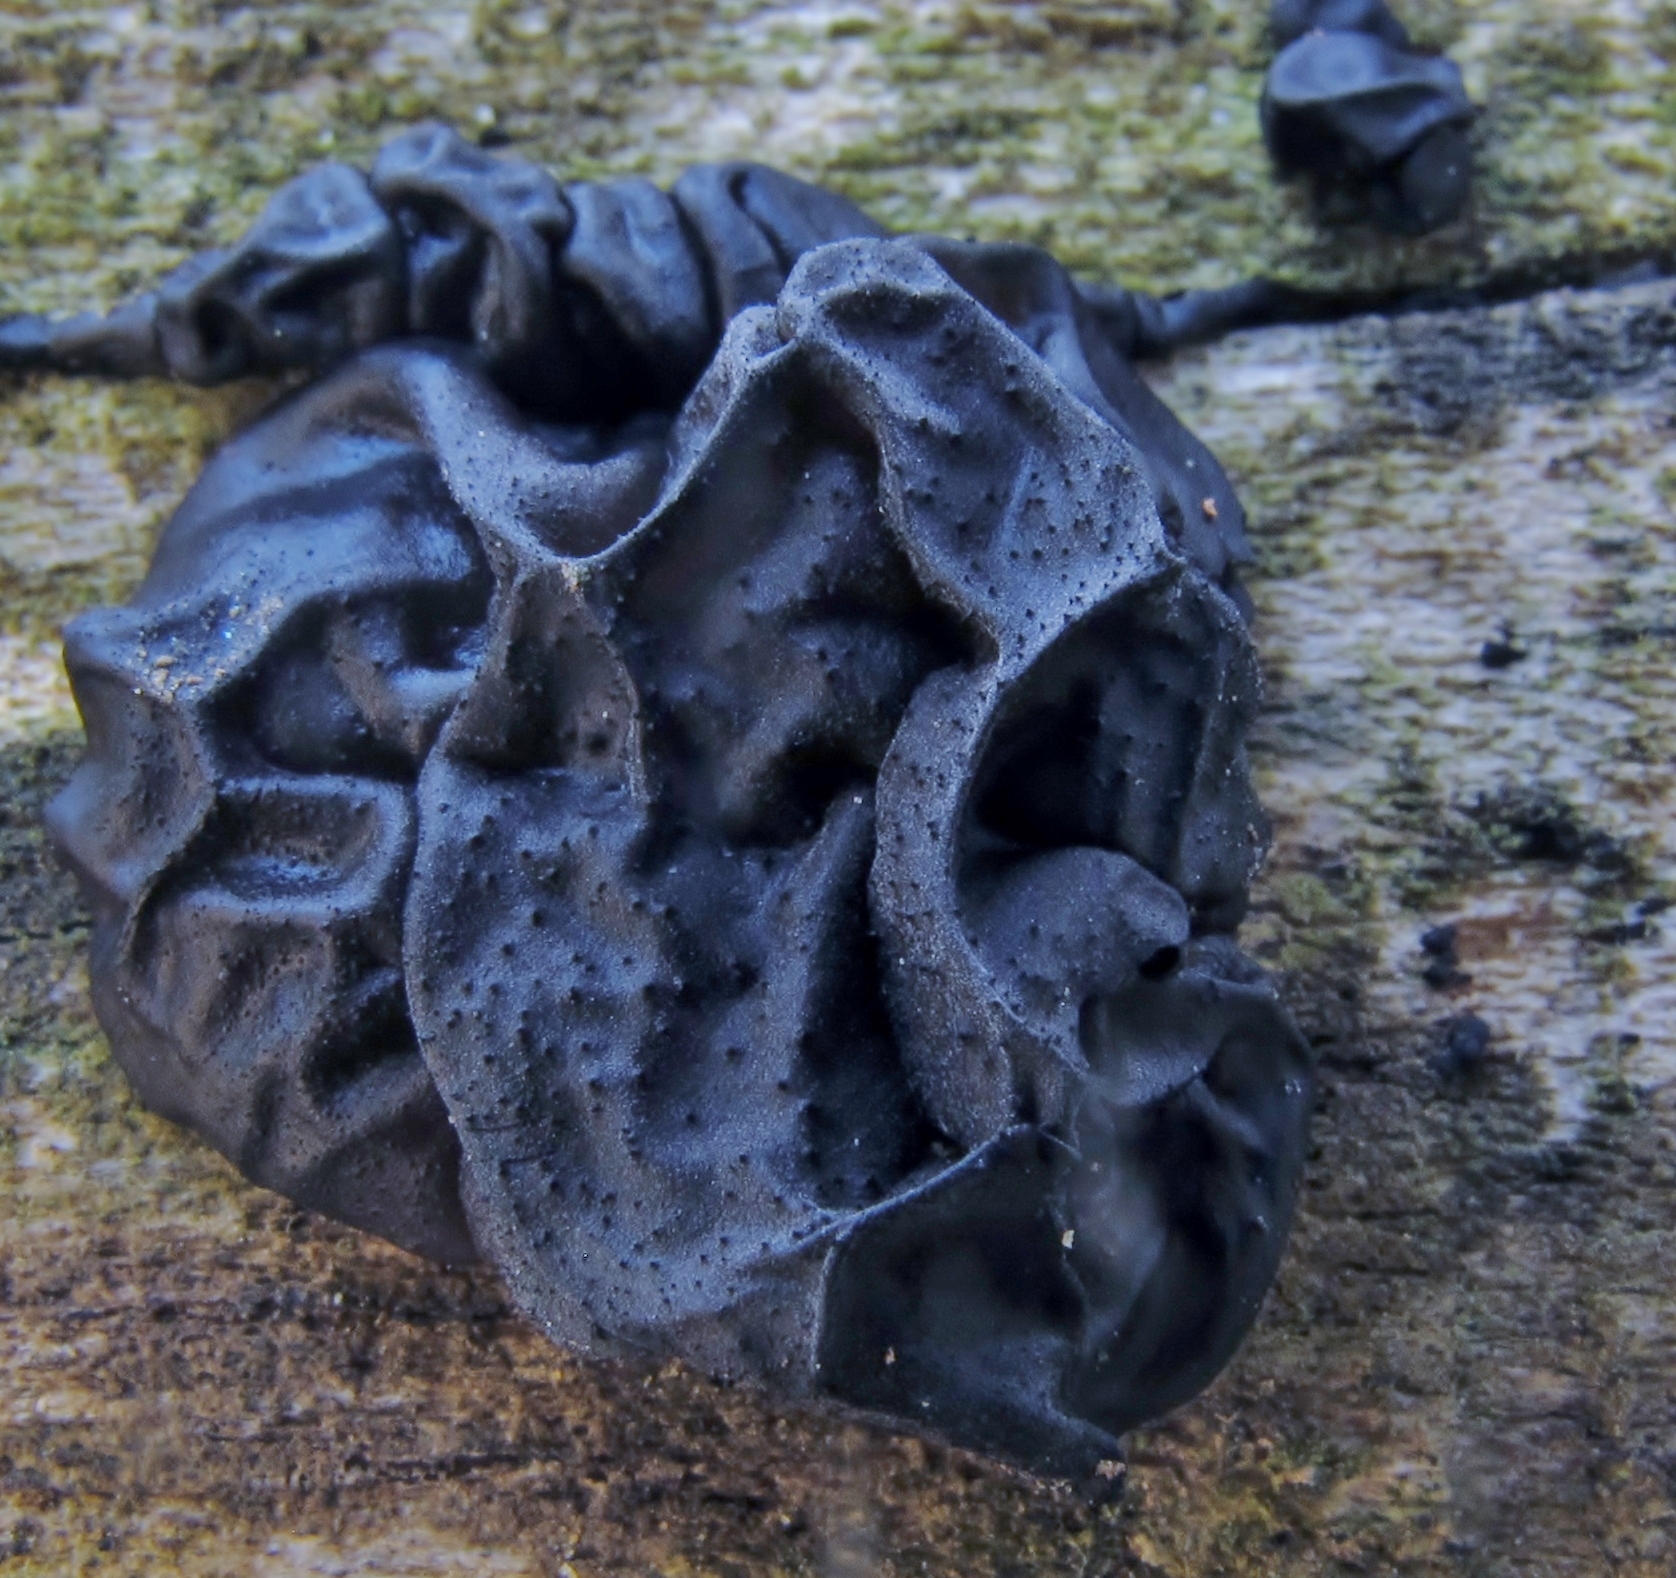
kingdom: Fungi
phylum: Basidiomycota
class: Agaricomycetes
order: Auriculariales
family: Auriculariaceae
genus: Exidia
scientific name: Exidia glandulosa
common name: Witches' butter
